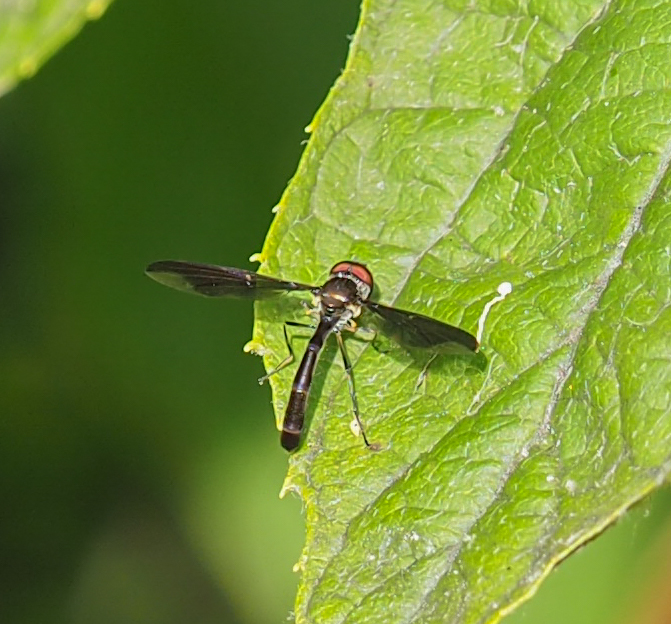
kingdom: Animalia
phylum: Arthropoda
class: Insecta
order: Diptera
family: Syrphidae
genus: Ocyptamus
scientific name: Ocyptamus fuscipennis
